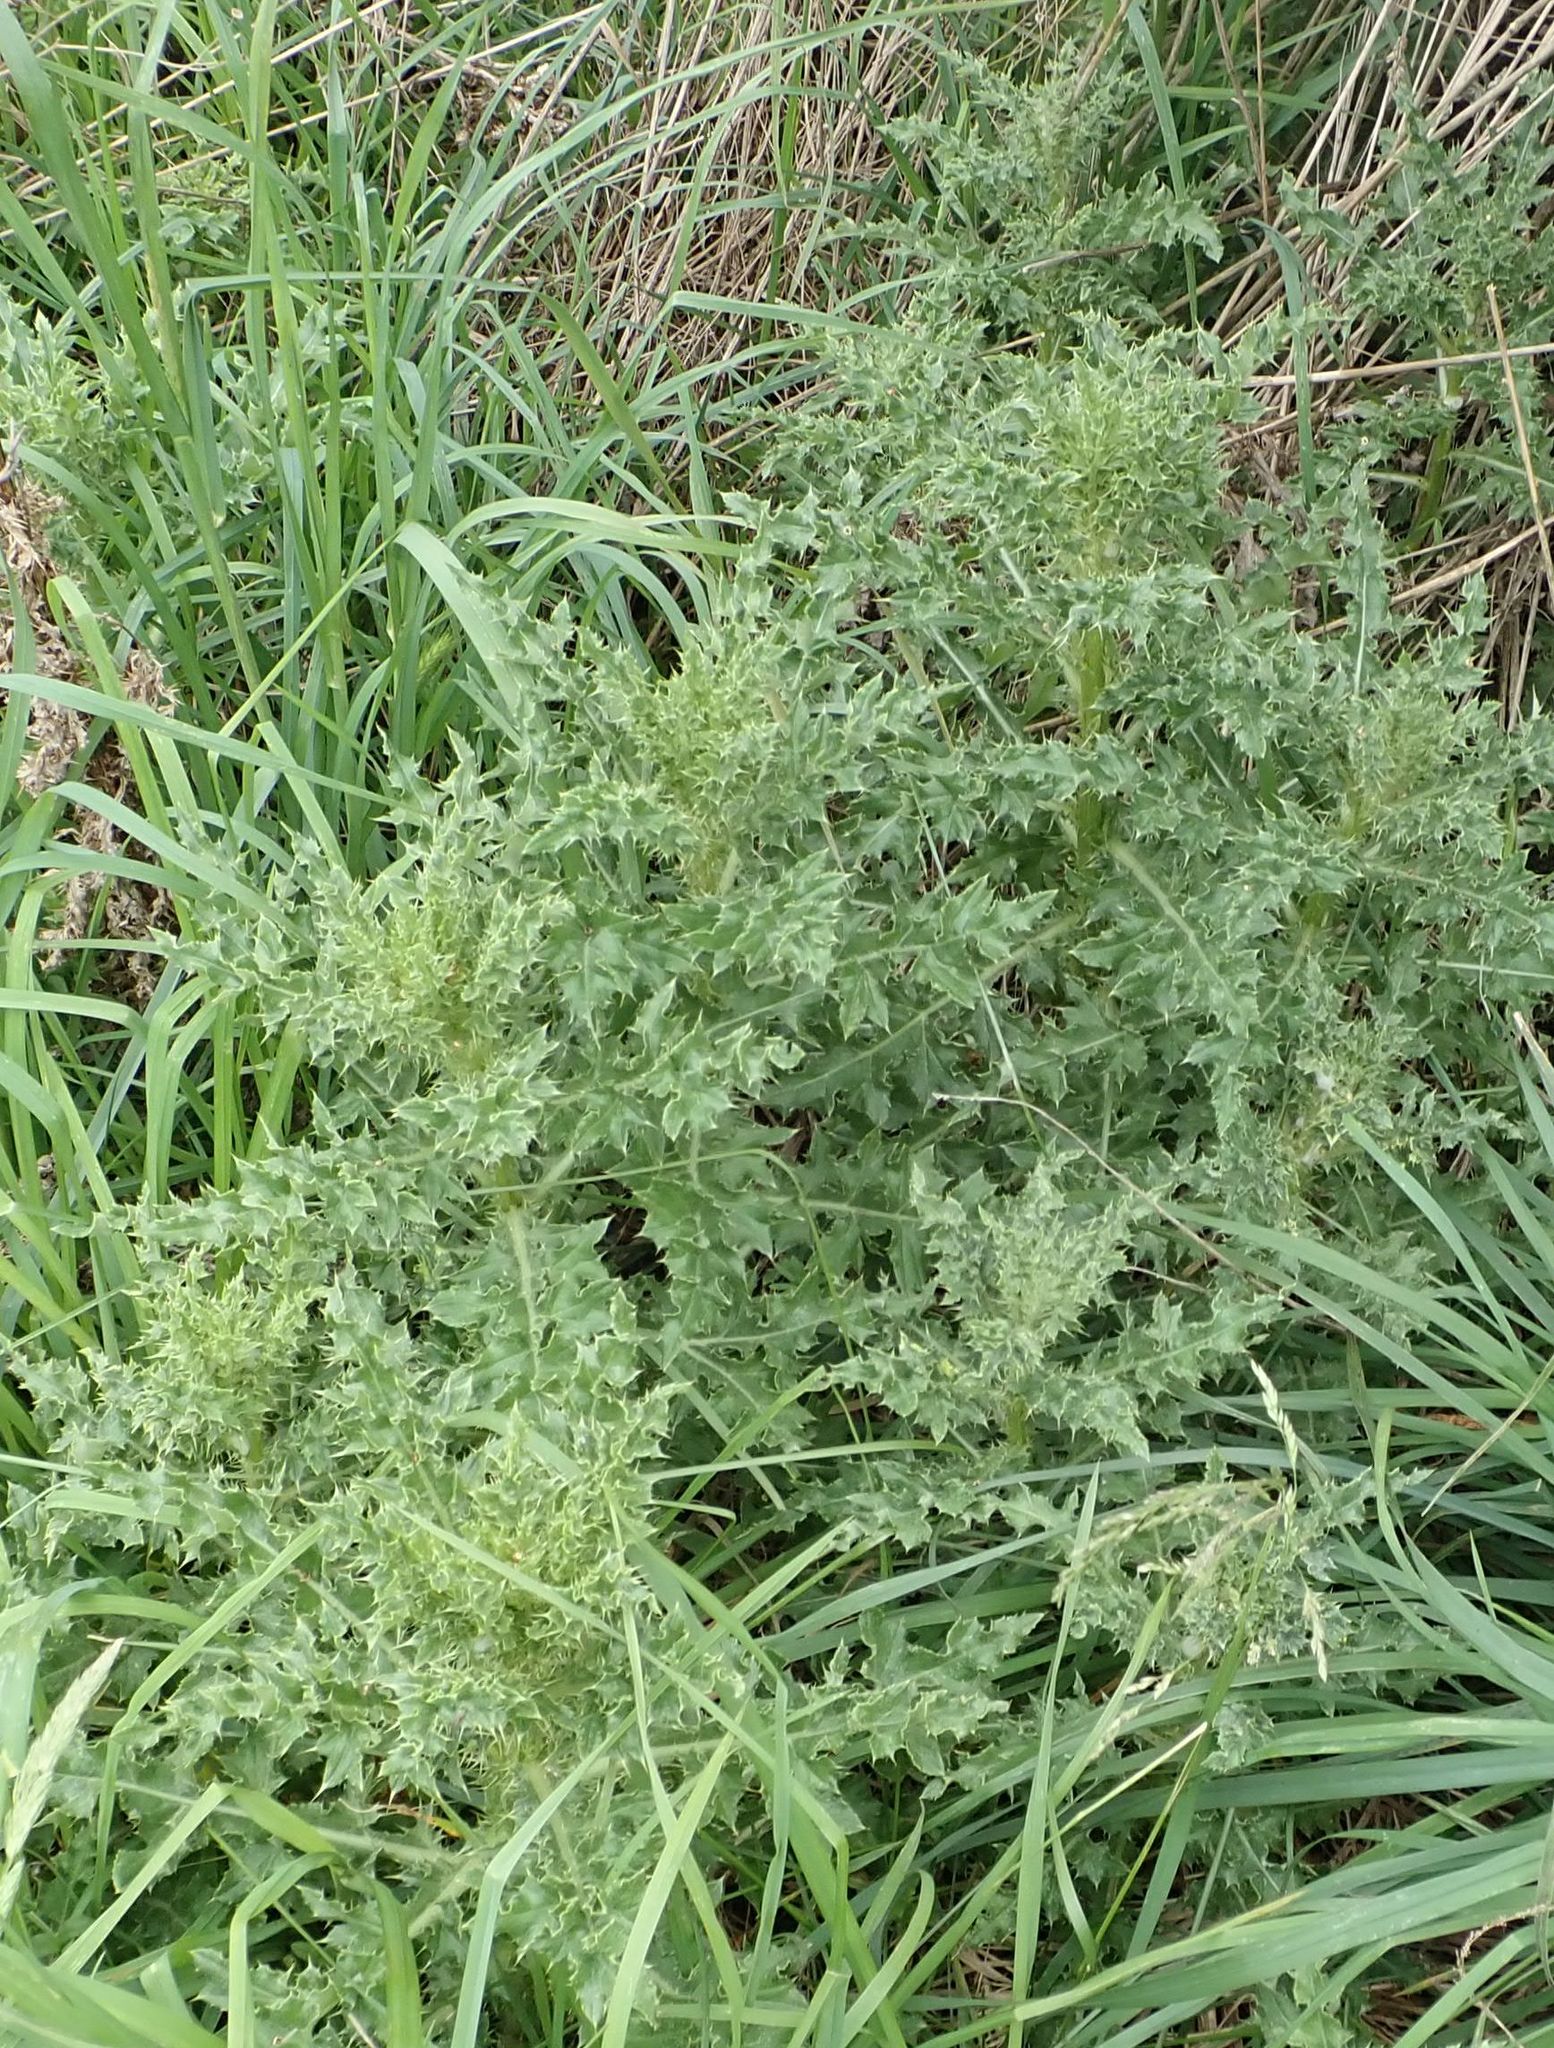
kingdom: Plantae
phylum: Tracheophyta
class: Magnoliopsida
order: Asterales
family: Asteraceae
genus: Cirsium
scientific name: Cirsium arvense
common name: Creeping thistle
